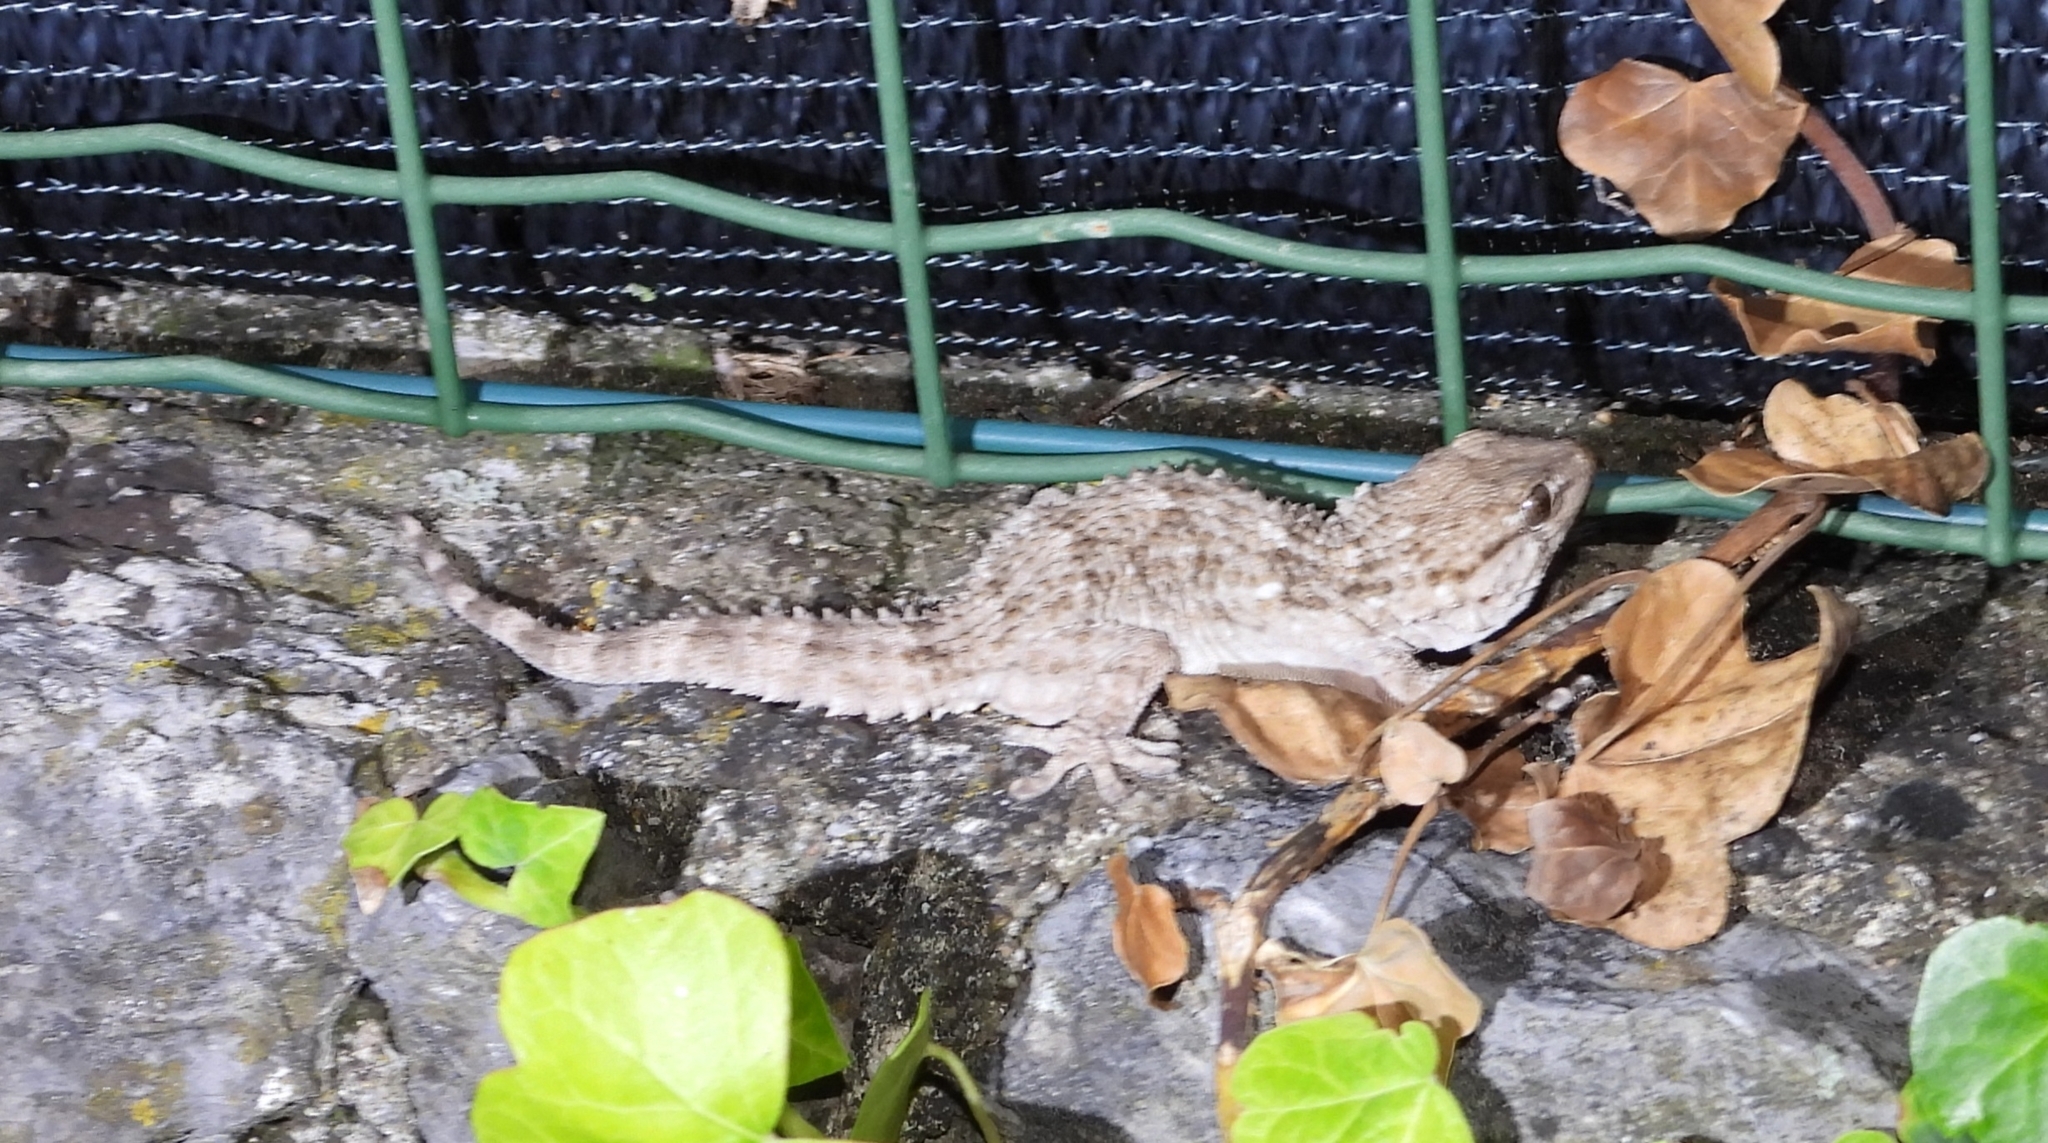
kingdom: Animalia
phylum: Chordata
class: Squamata
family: Phyllodactylidae
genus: Tarentola
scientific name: Tarentola mauritanica
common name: Moorish gecko
